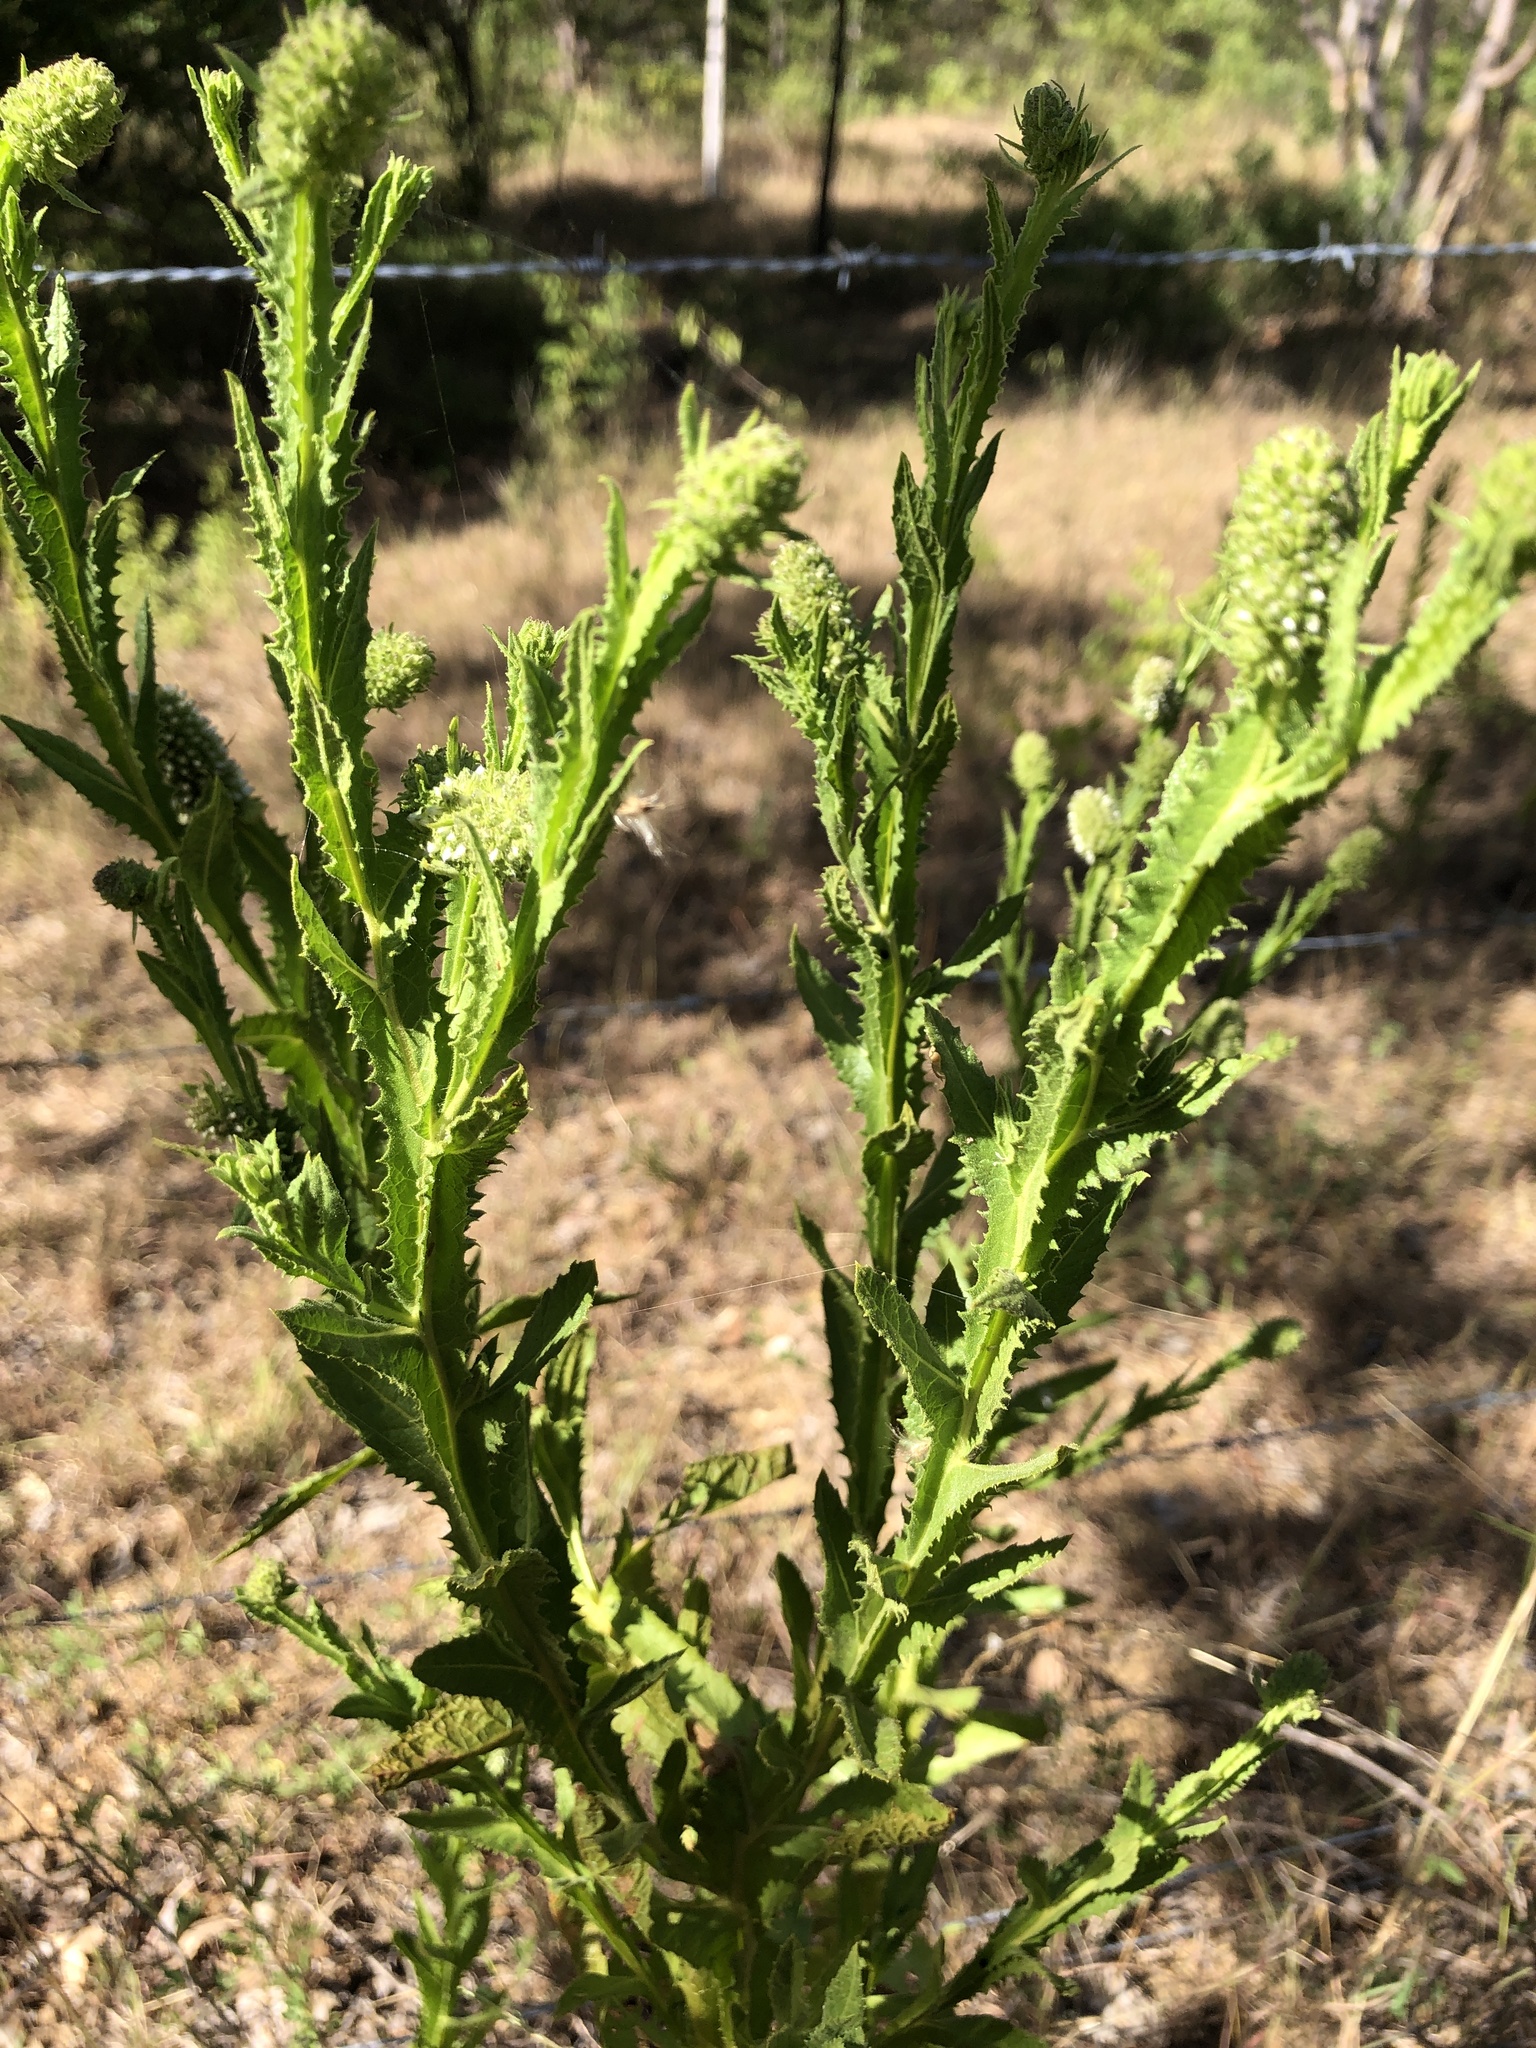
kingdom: Plantae
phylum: Tracheophyta
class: Magnoliopsida
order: Asterales
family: Asteraceae
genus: Pterocaulon
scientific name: Pterocaulon serrulatum
